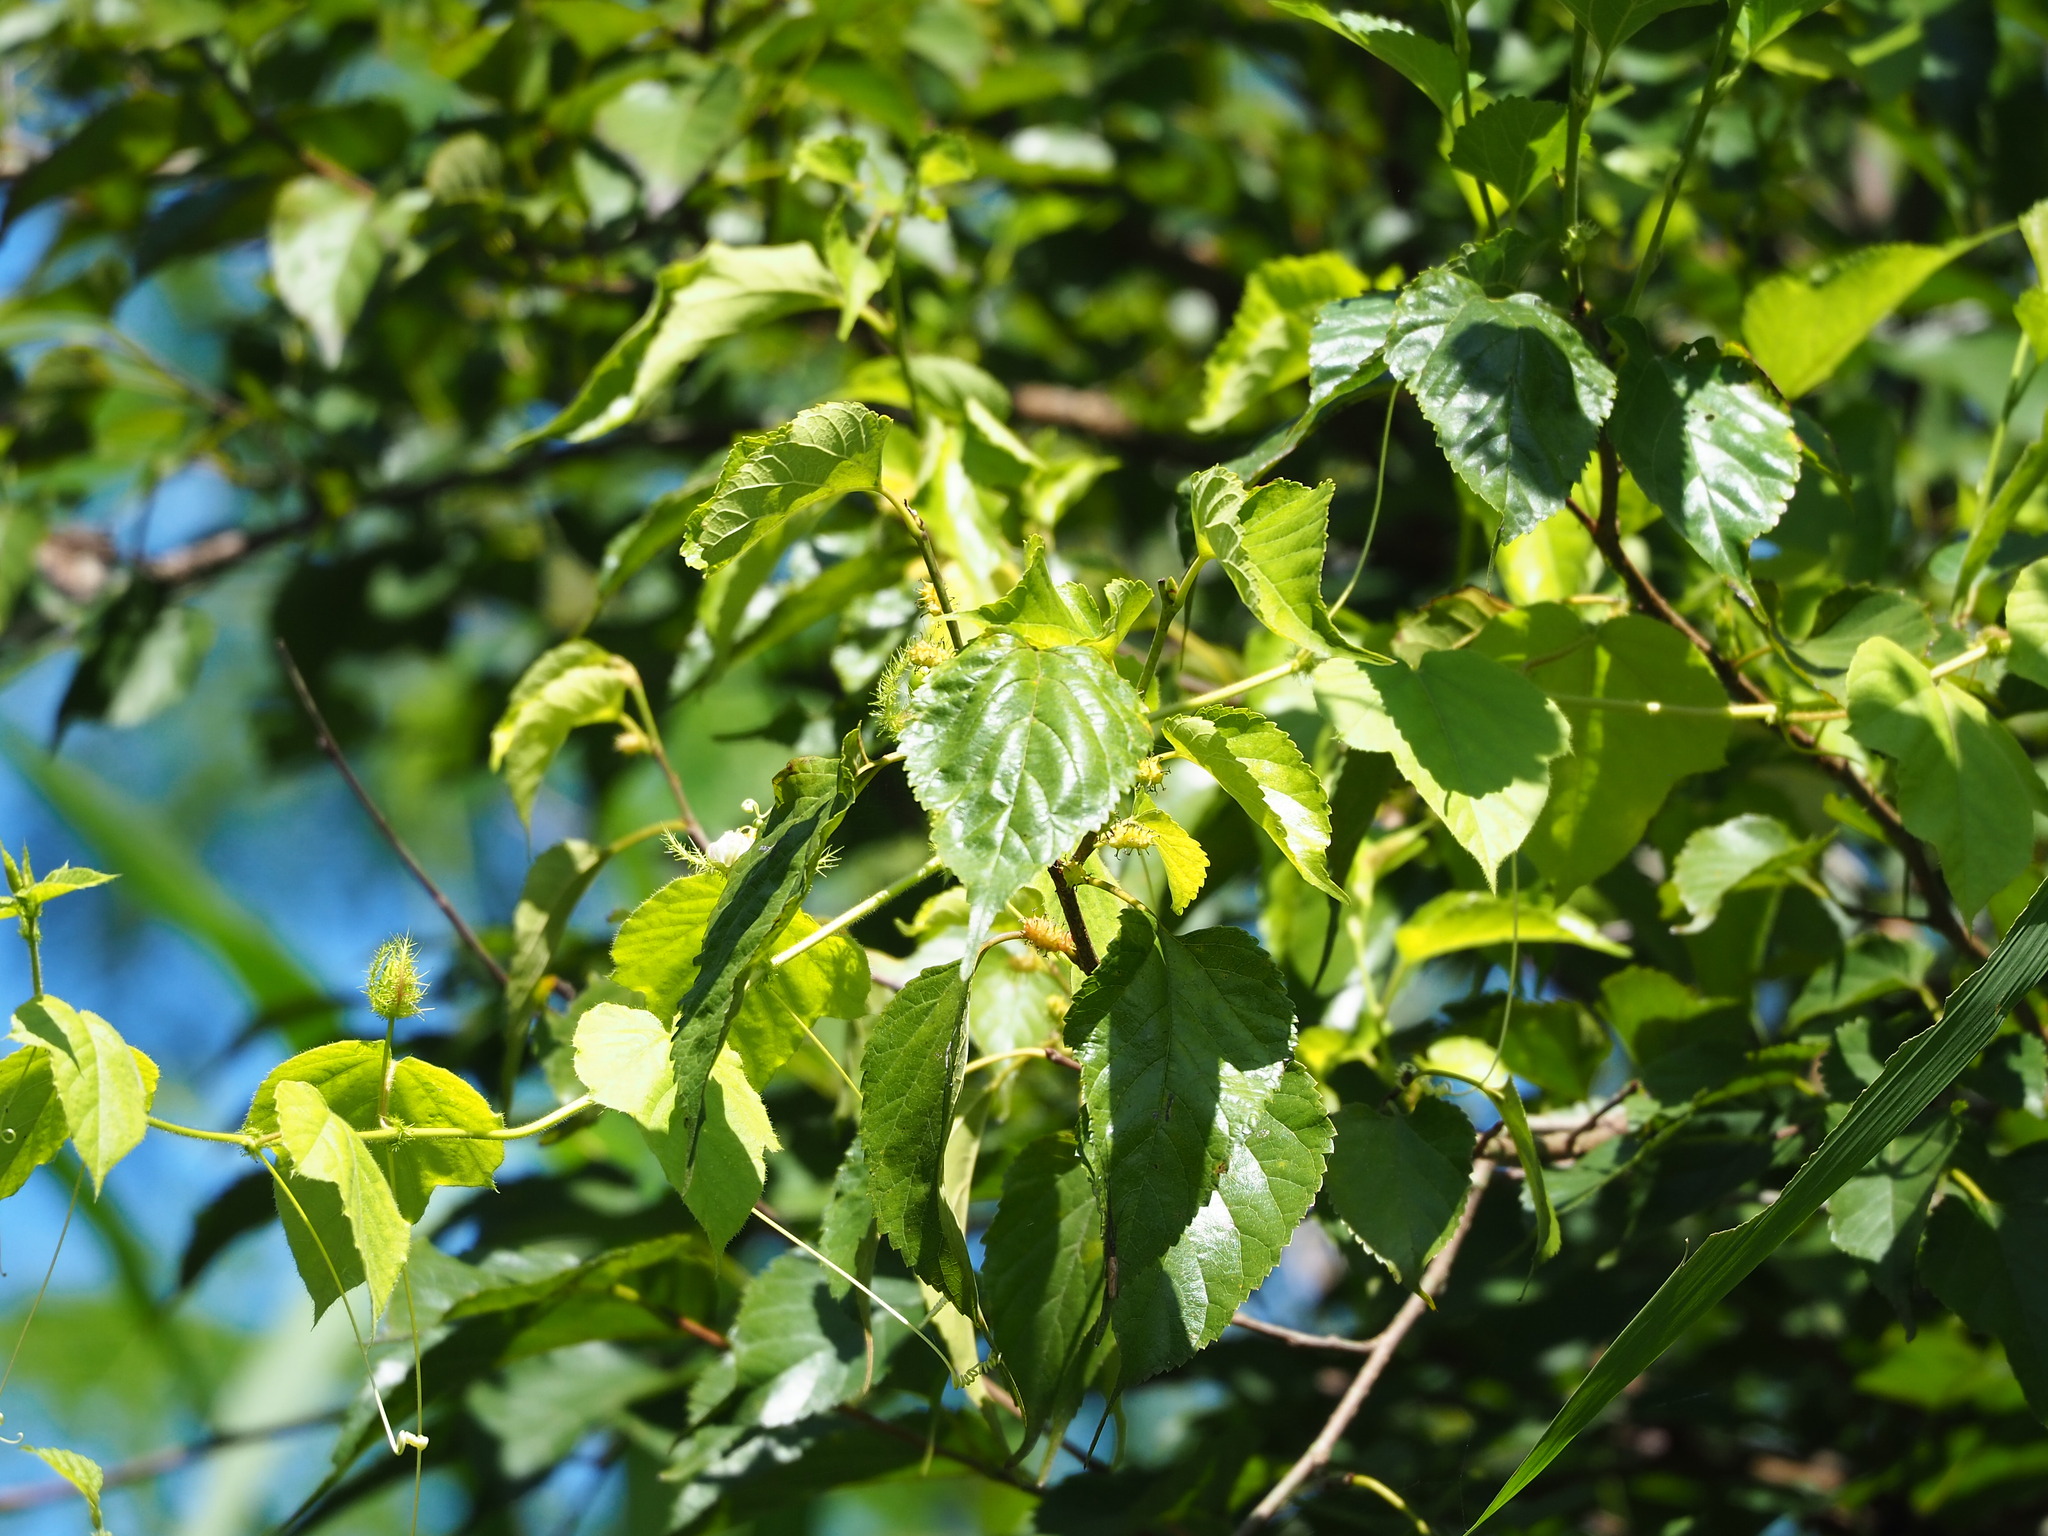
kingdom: Plantae
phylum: Tracheophyta
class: Magnoliopsida
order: Rosales
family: Moraceae
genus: Morus
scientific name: Morus indica
